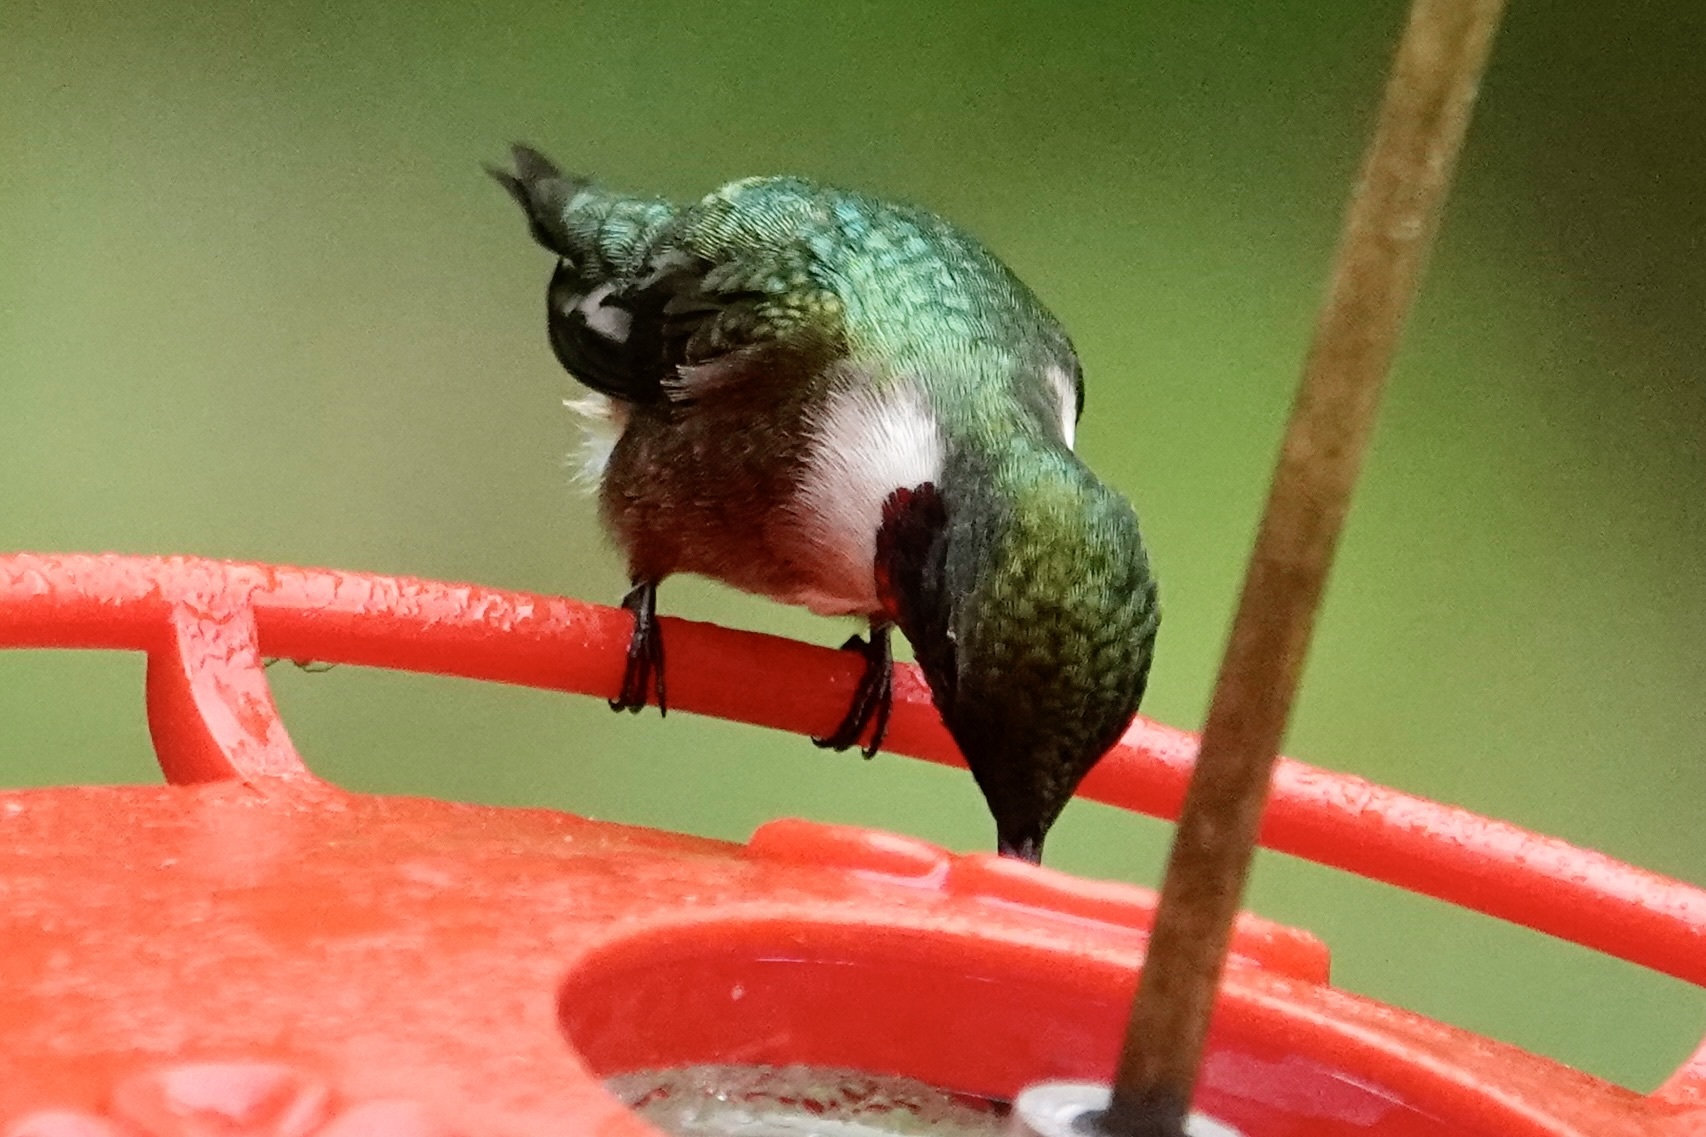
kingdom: Animalia
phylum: Chordata
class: Aves
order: Apodiformes
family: Trochilidae
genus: Archilochus
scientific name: Archilochus colubris
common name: Ruby-throated hummingbird
